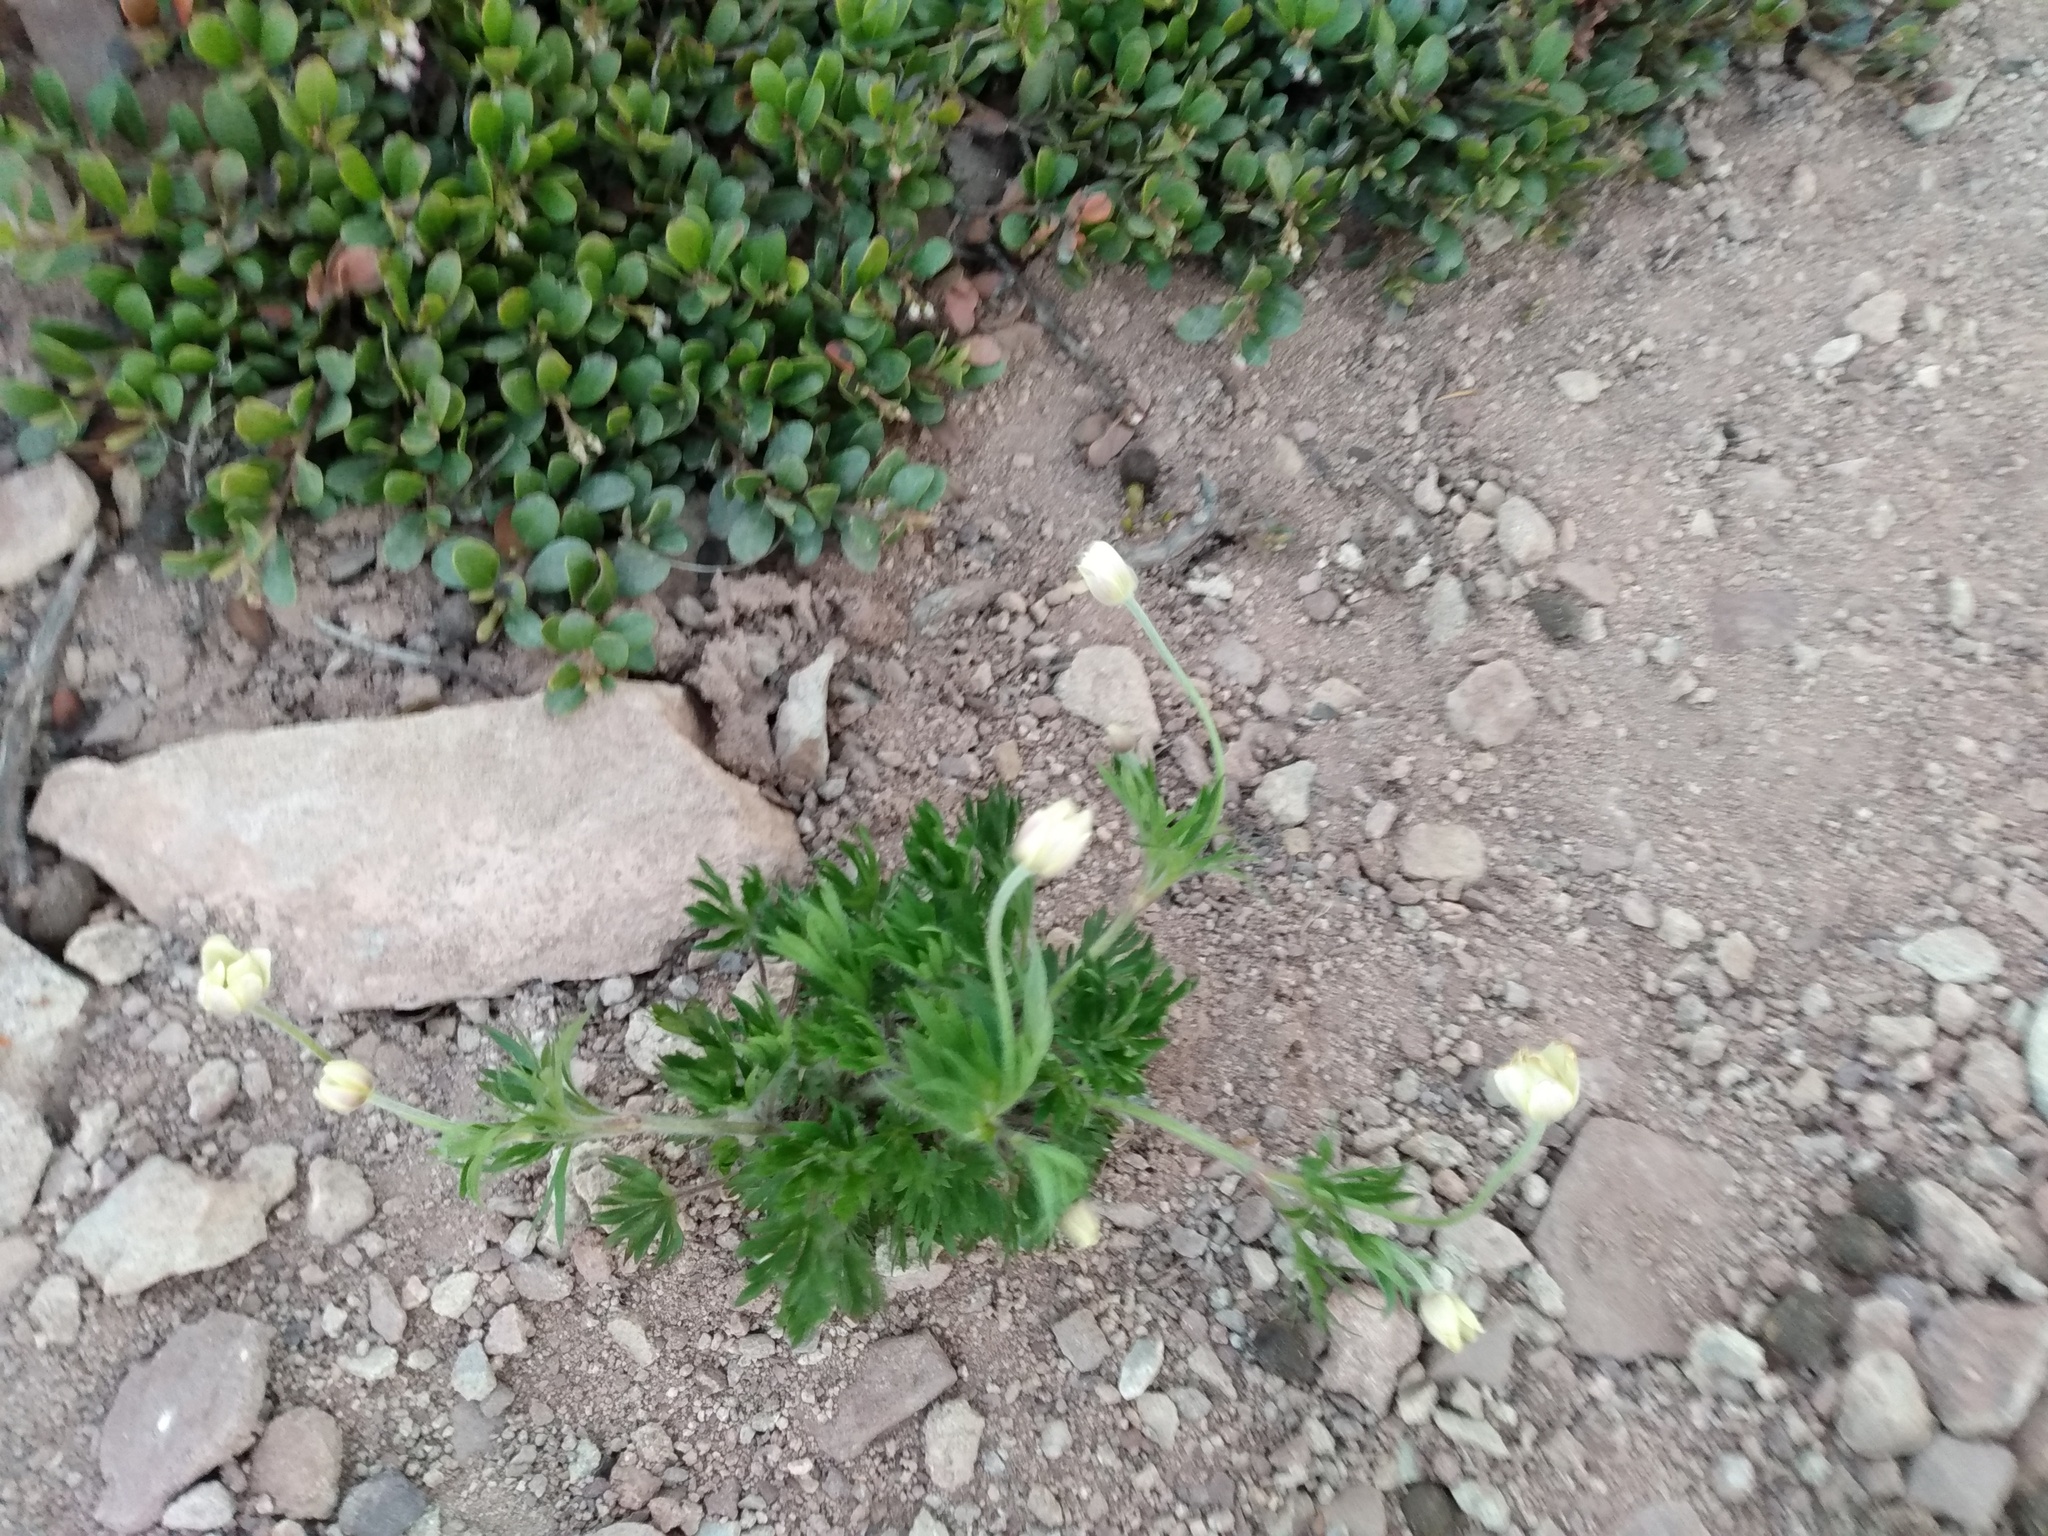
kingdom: Plantae
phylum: Tracheophyta
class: Magnoliopsida
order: Ranunculales
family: Ranunculaceae
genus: Anemone
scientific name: Anemone multifida
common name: Bird's-foot anemone
